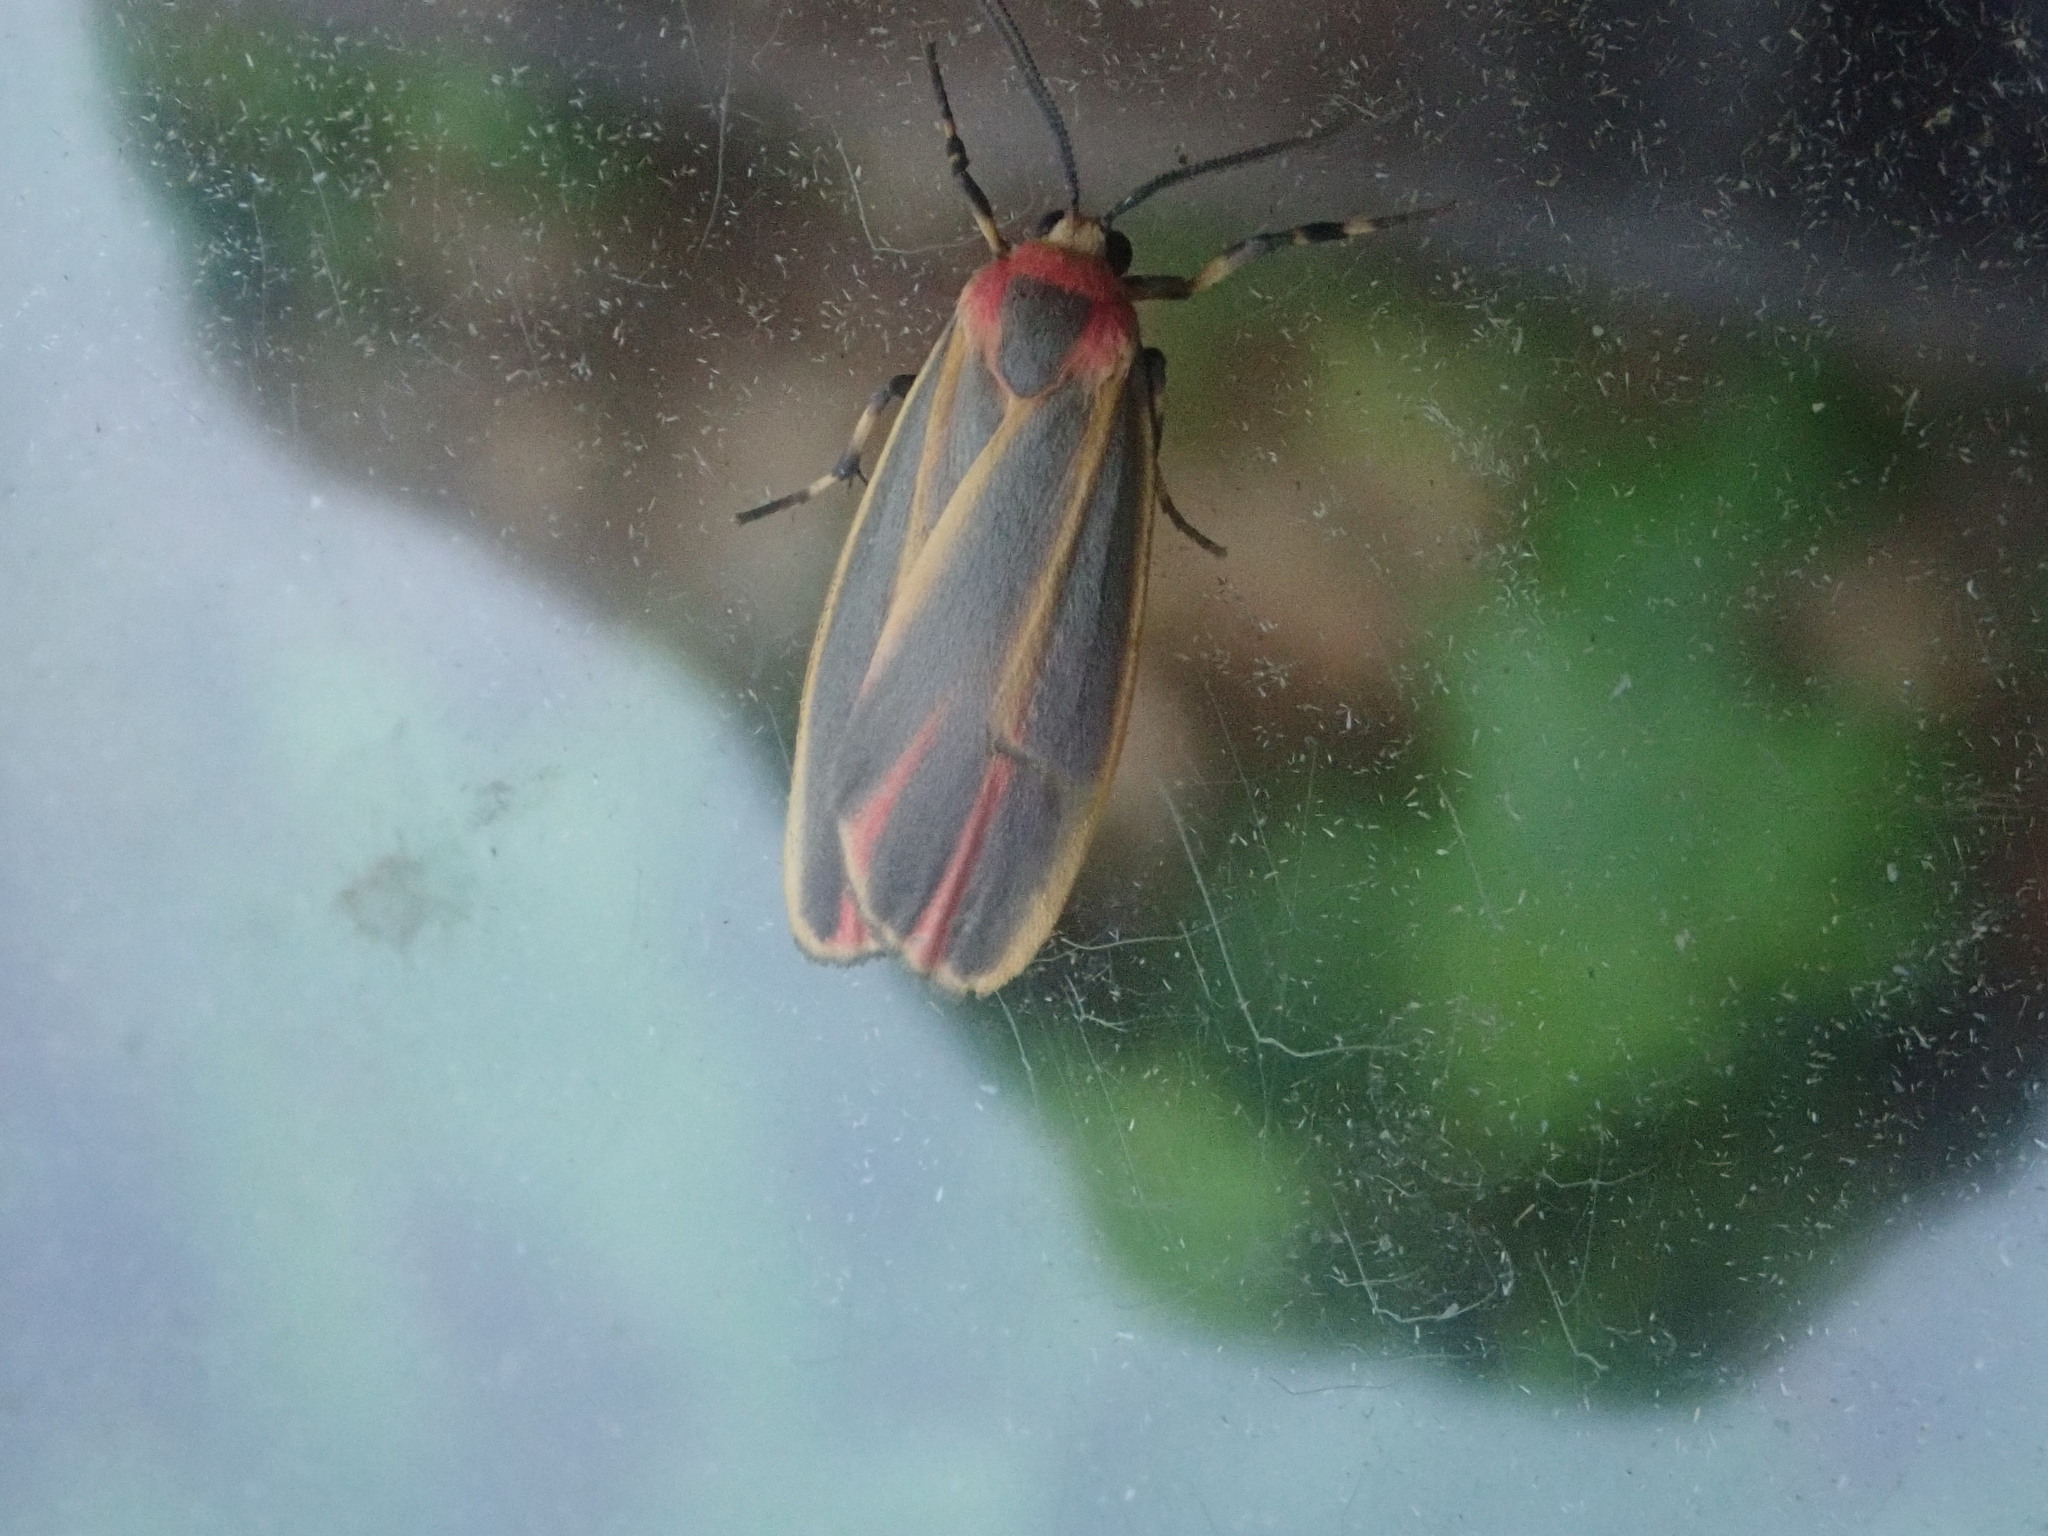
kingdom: Animalia
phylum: Arthropoda
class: Insecta
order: Lepidoptera
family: Erebidae
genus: Hypoprepia
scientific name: Hypoprepia fucosa
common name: Painted lichen moth
